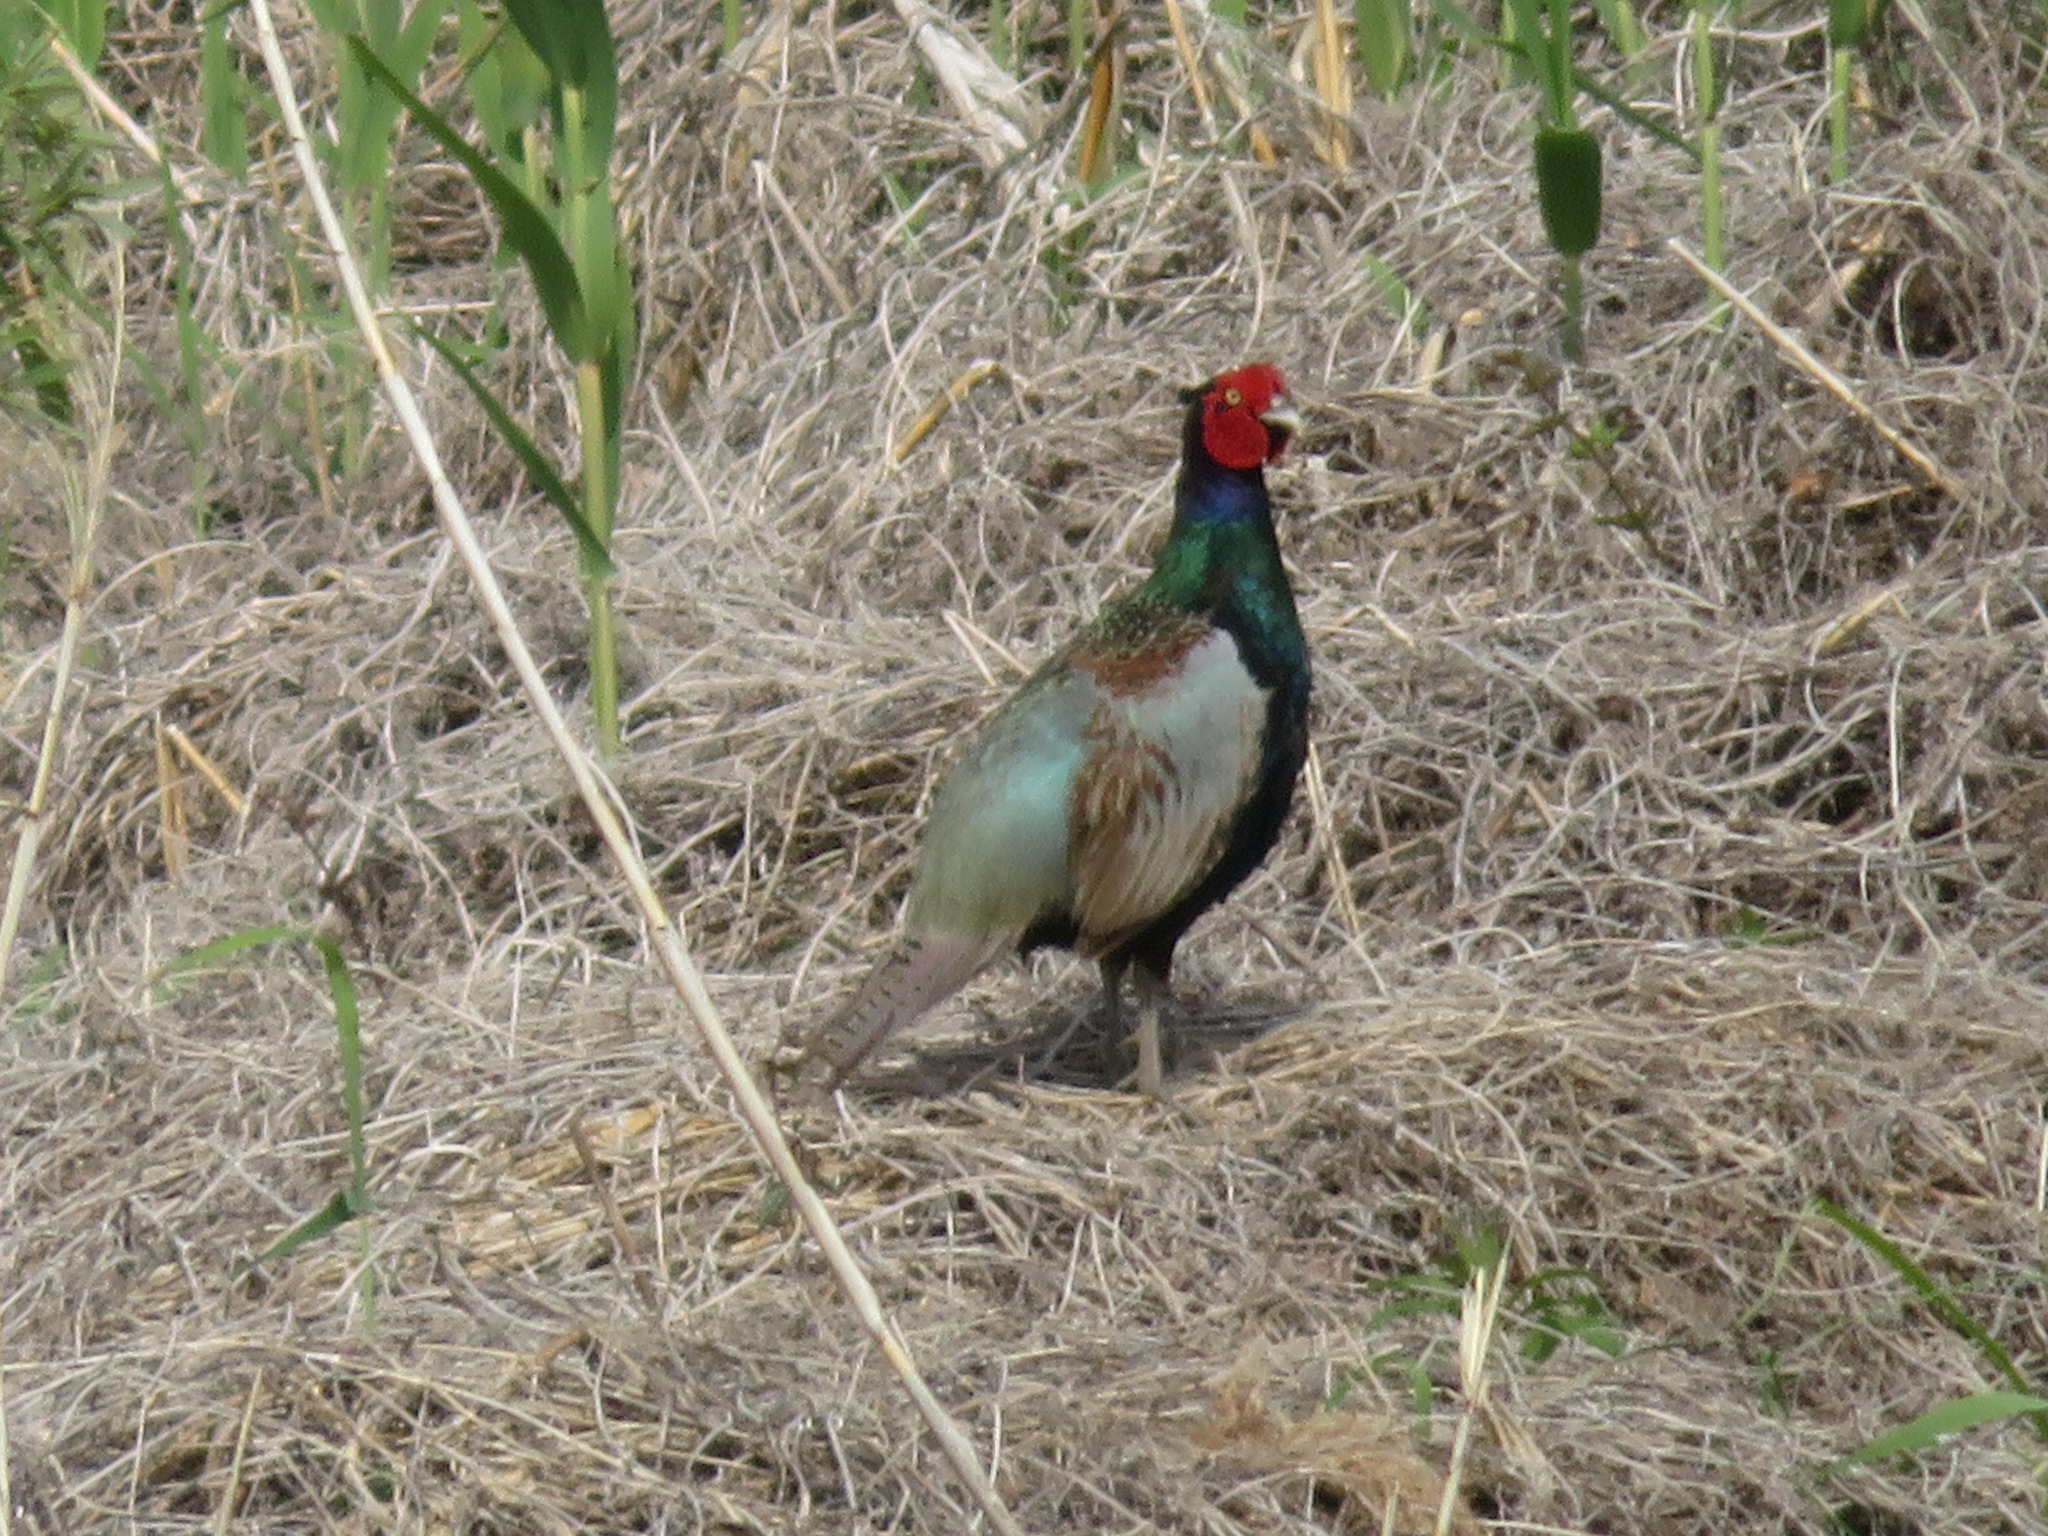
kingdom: Animalia
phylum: Chordata
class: Aves
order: Galliformes
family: Phasianidae
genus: Phasianus
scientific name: Phasianus versicolor
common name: Green pheasant
